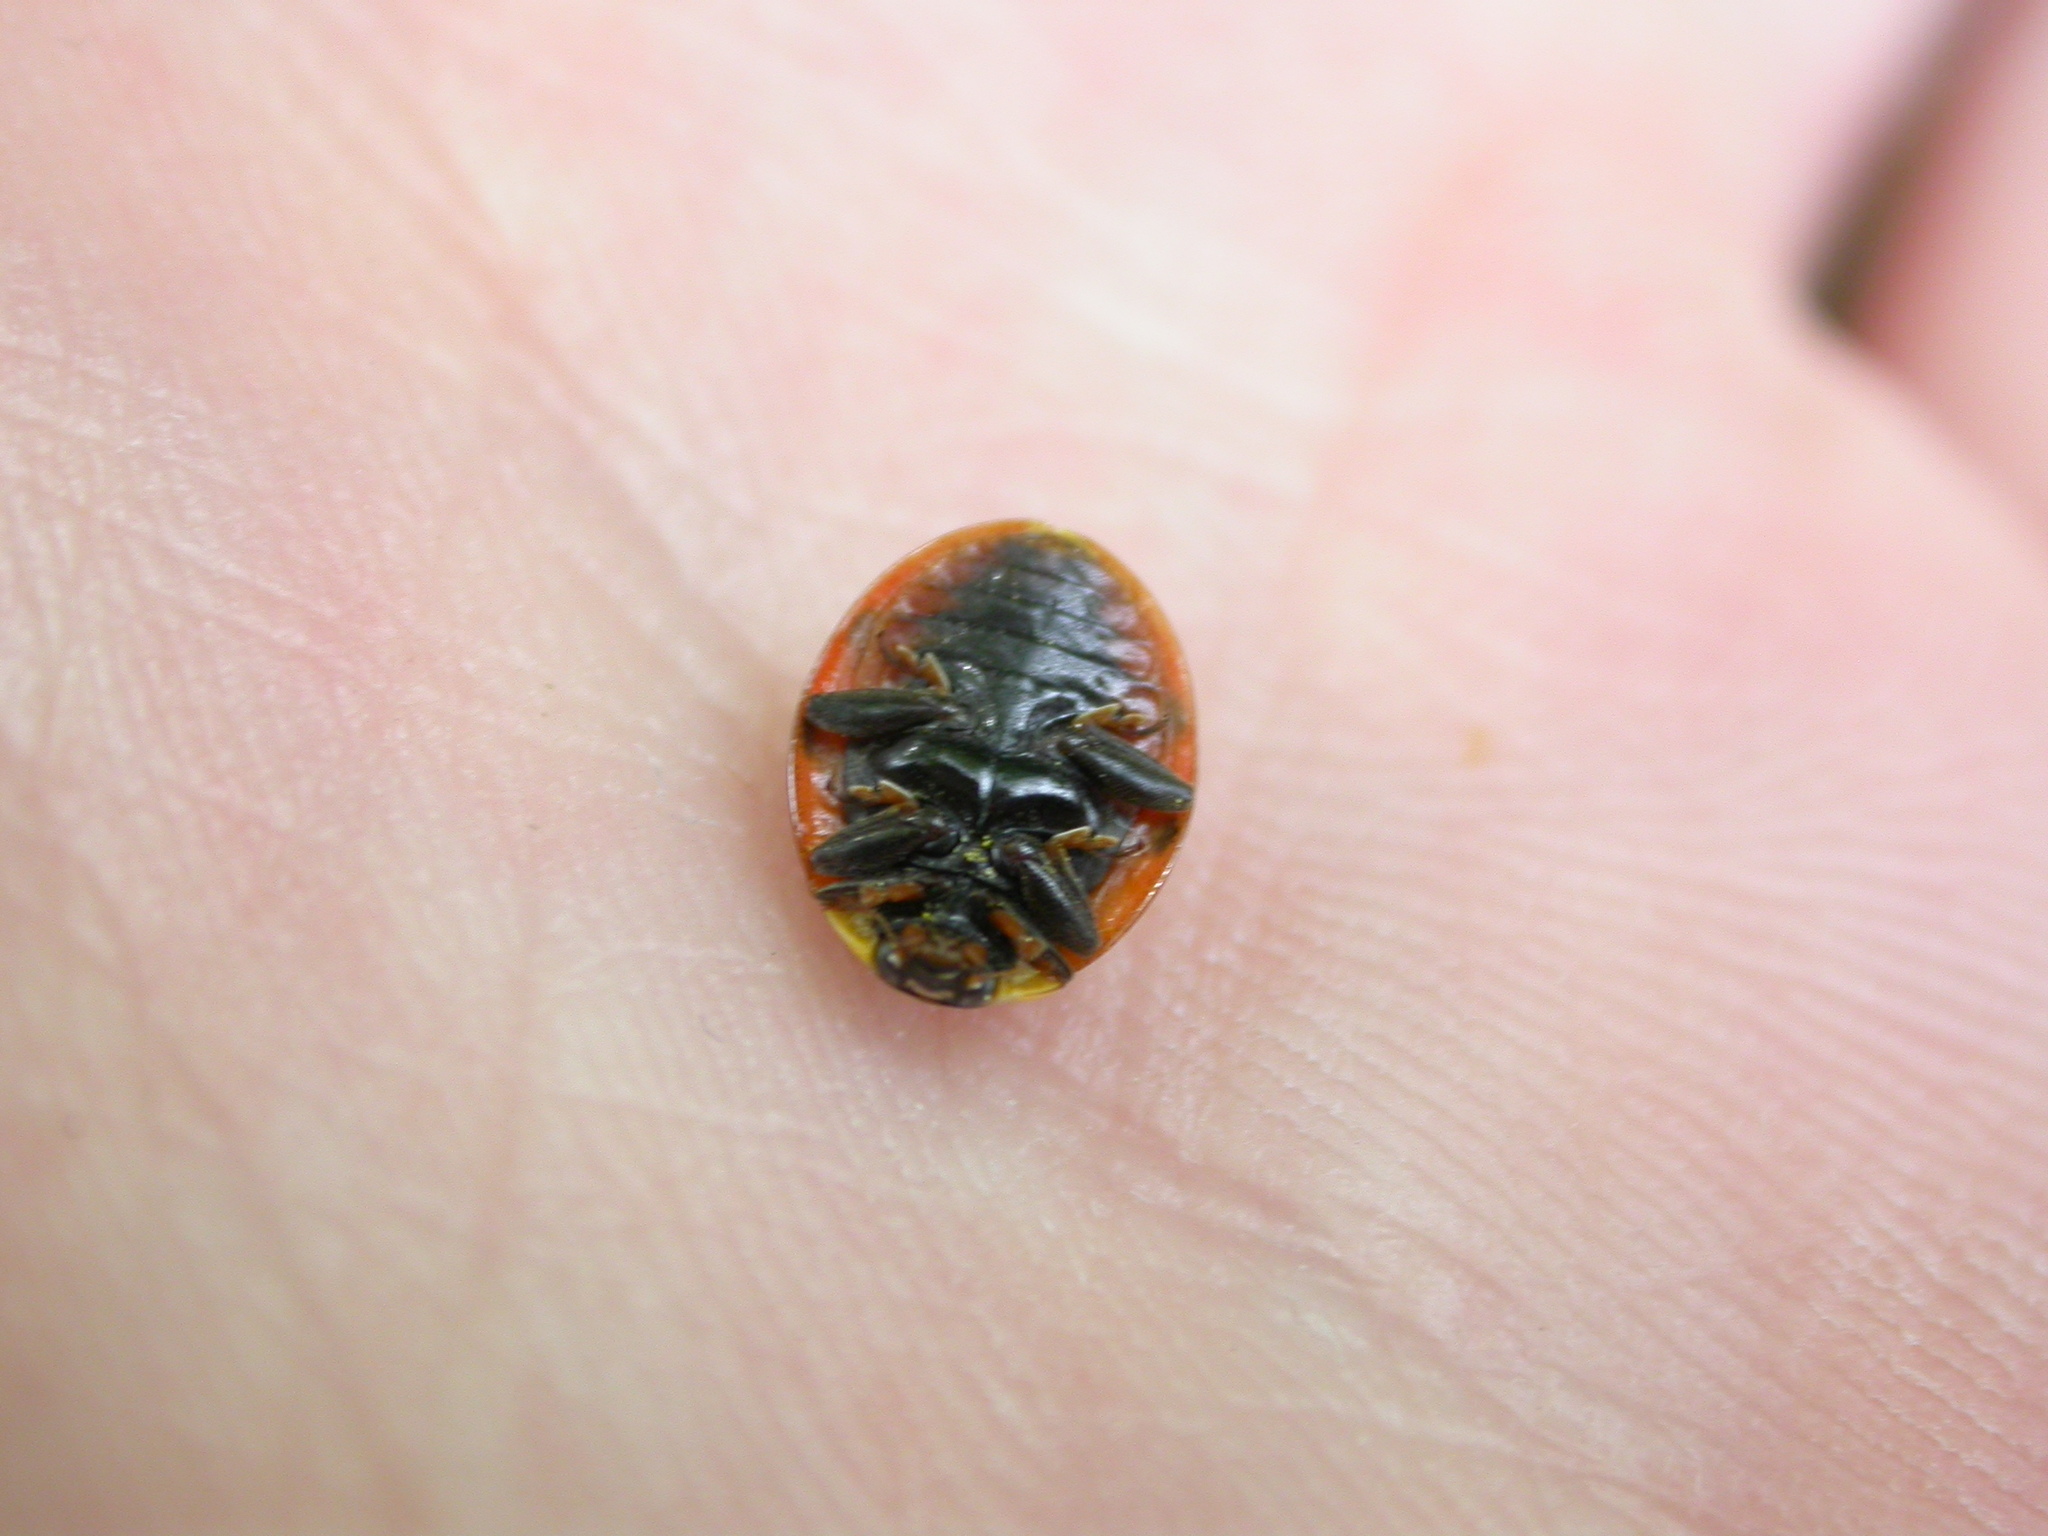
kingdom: Animalia
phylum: Arthropoda
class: Insecta
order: Coleoptera
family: Coccinellidae
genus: Harmonia
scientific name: Harmonia axyridis
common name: Harlequin ladybird
